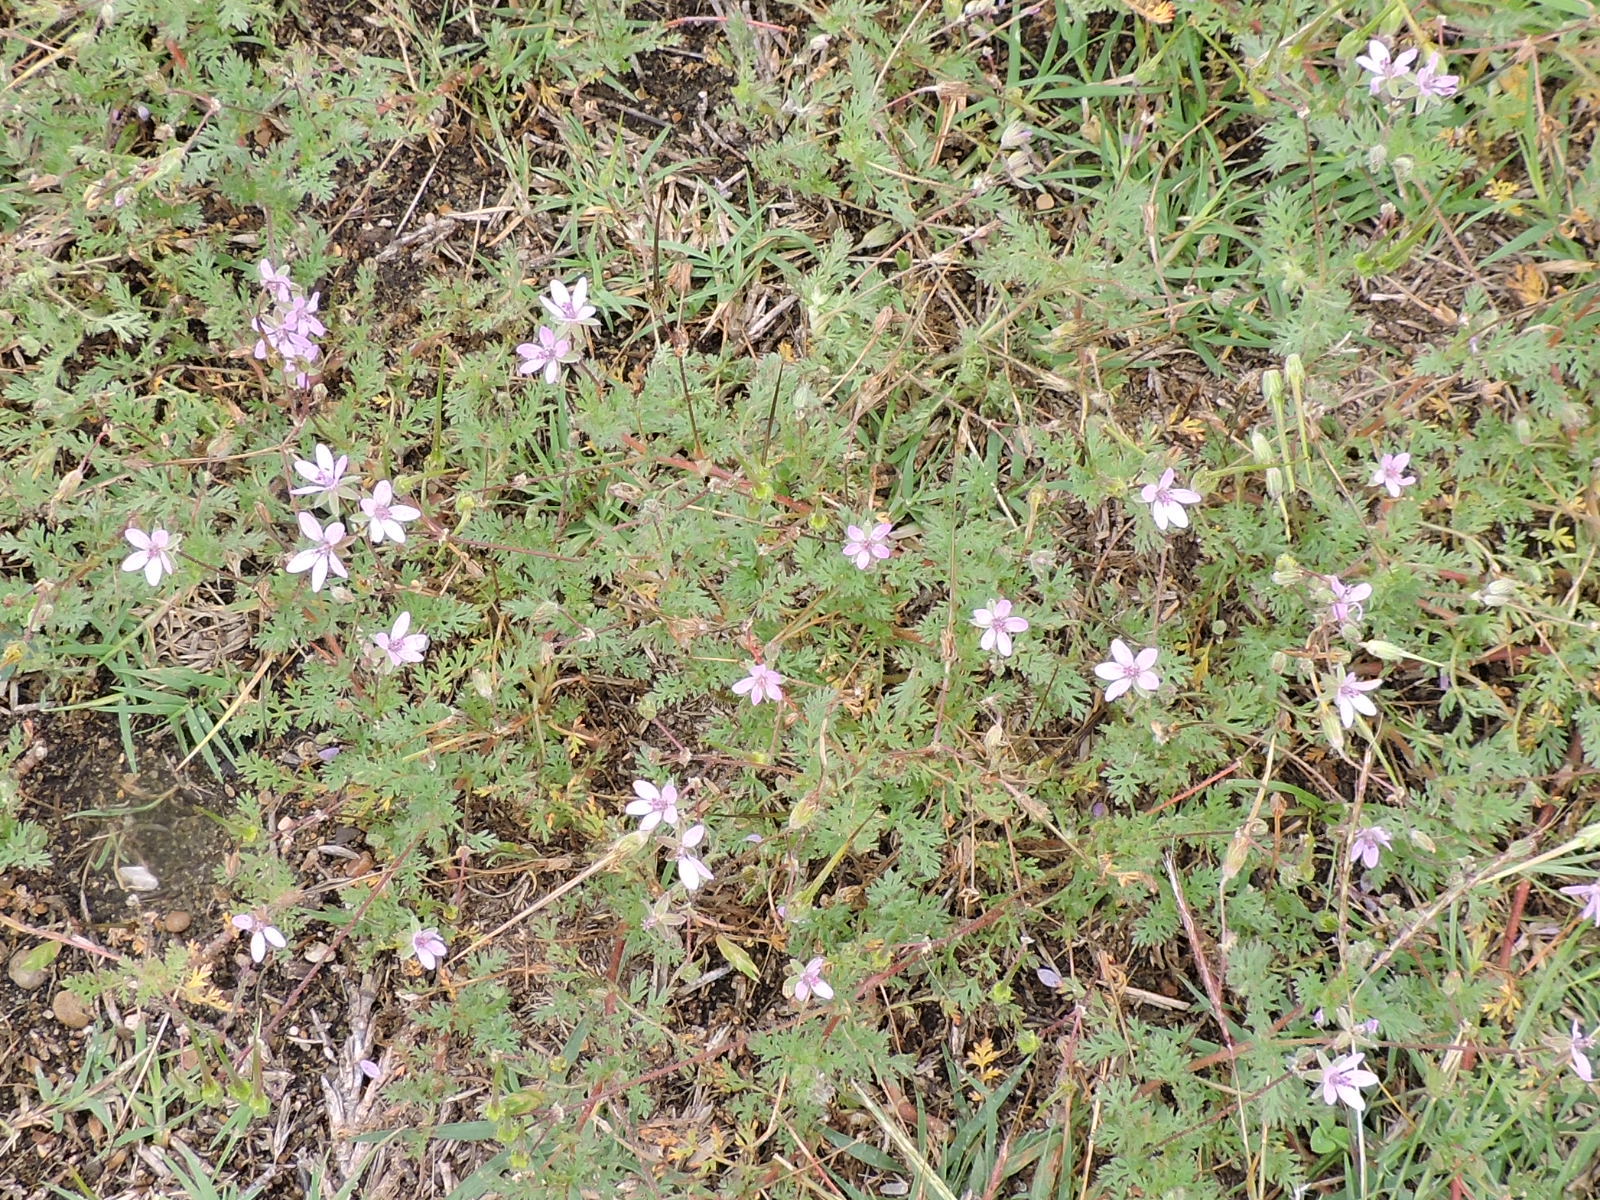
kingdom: Plantae
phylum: Tracheophyta
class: Magnoliopsida
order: Geraniales
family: Geraniaceae
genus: Erodium
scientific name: Erodium cicutarium
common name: Common stork's-bill
